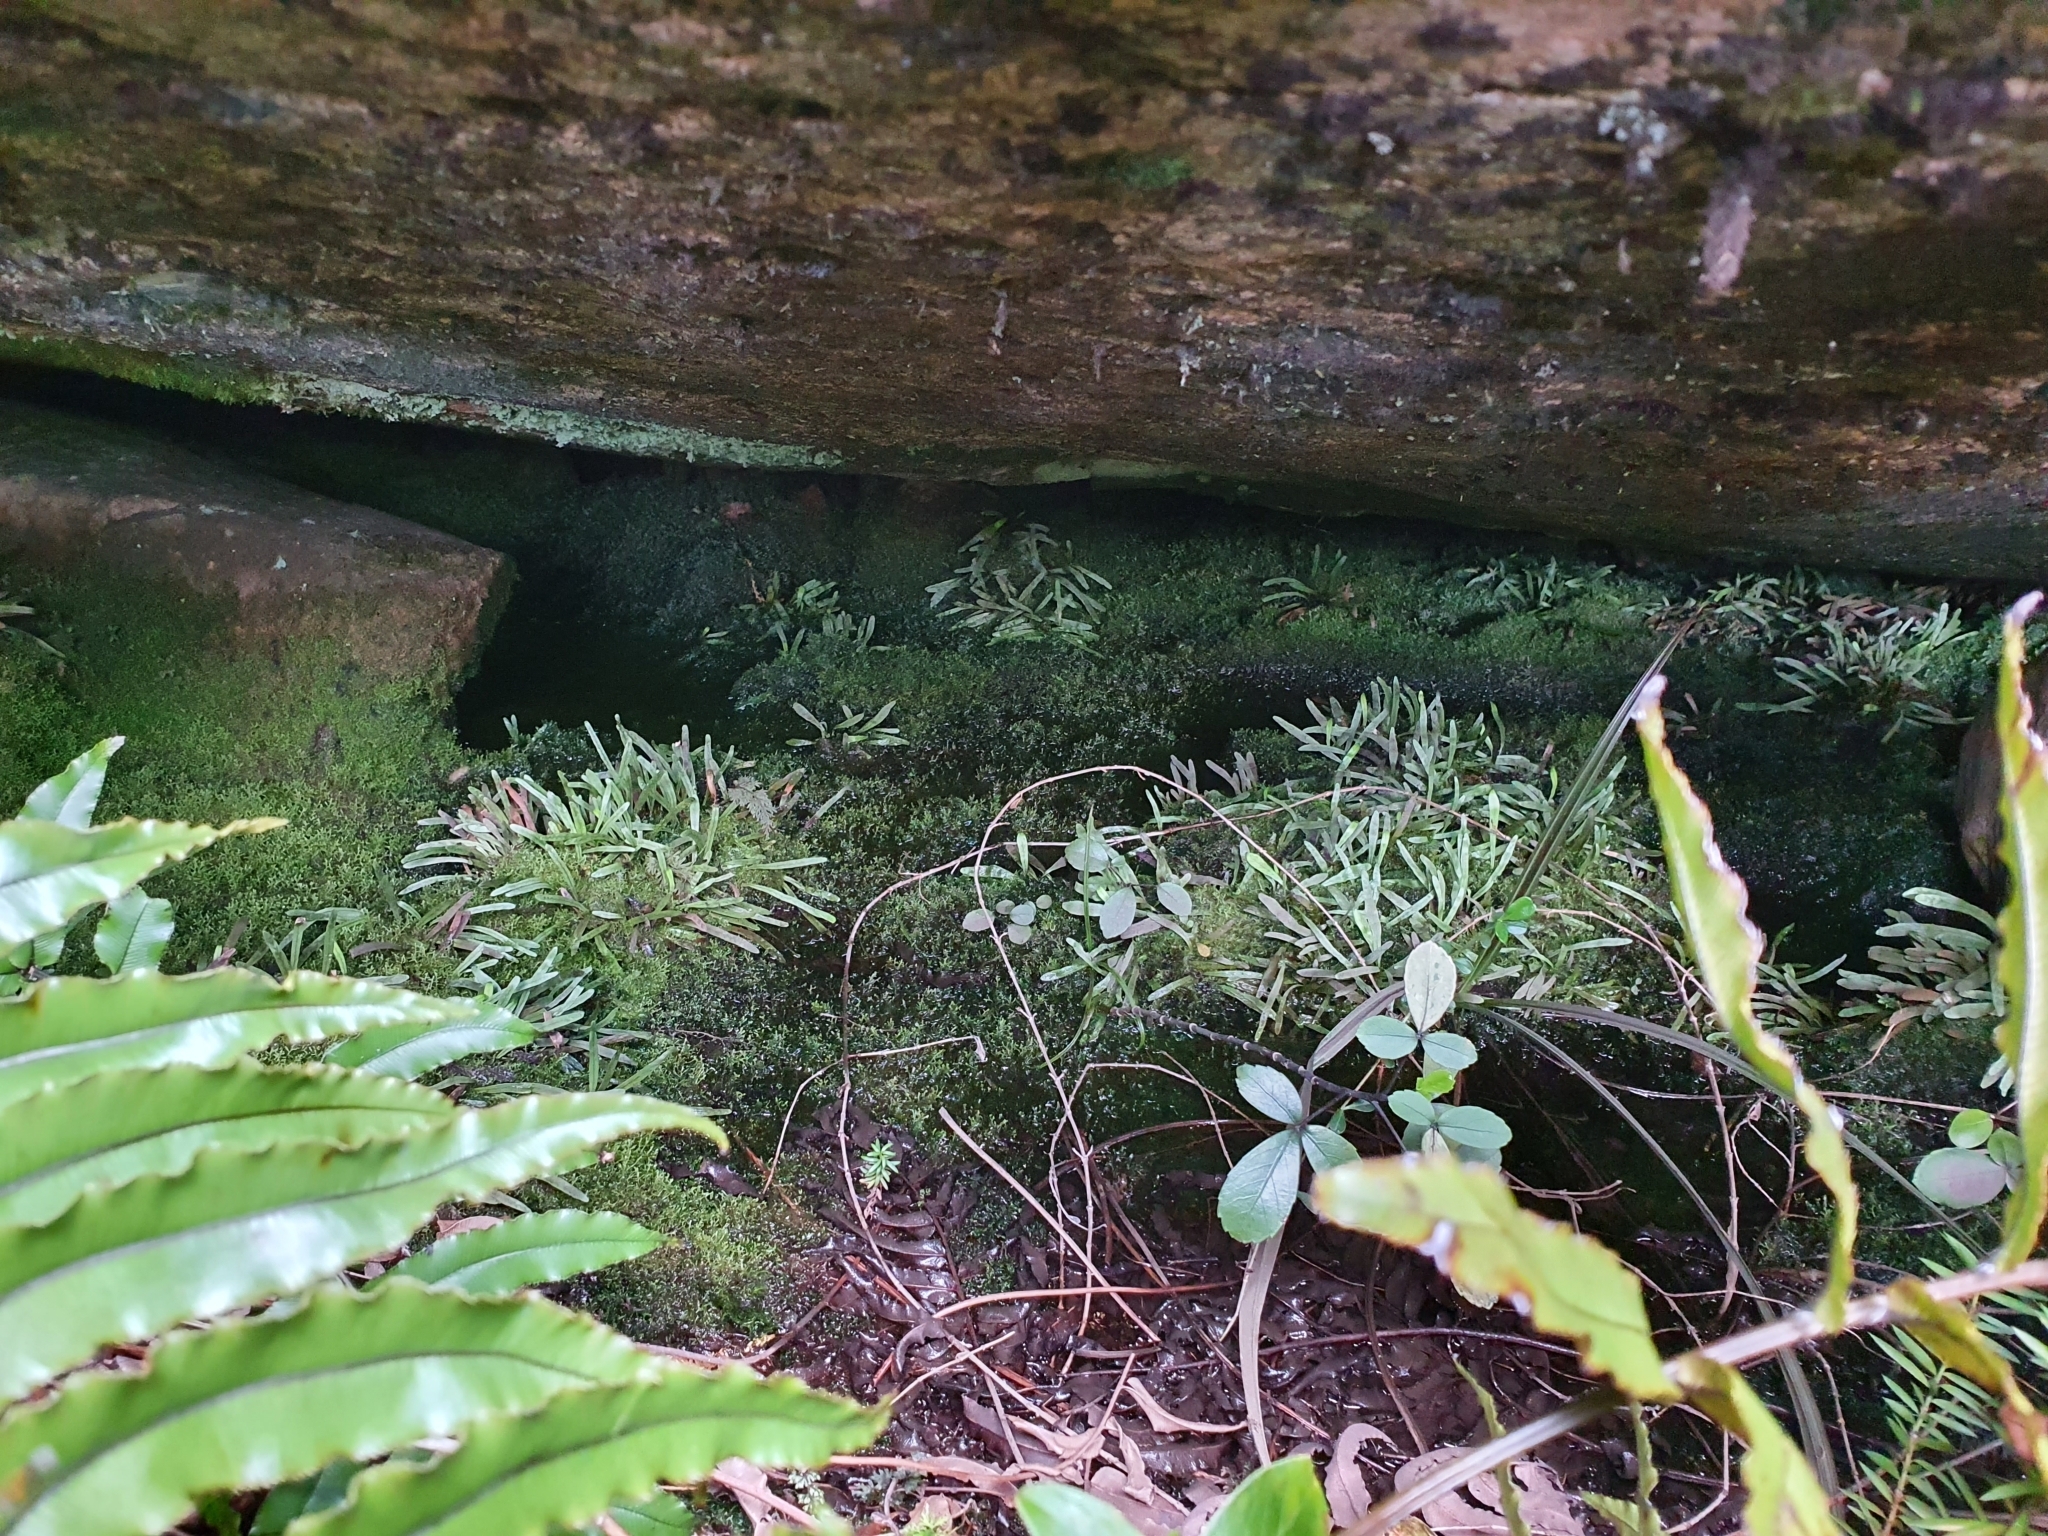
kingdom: Plantae
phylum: Tracheophyta
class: Polypodiopsida
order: Polypodiales
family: Polypodiaceae
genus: Notogrammitis
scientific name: Notogrammitis patagonica
